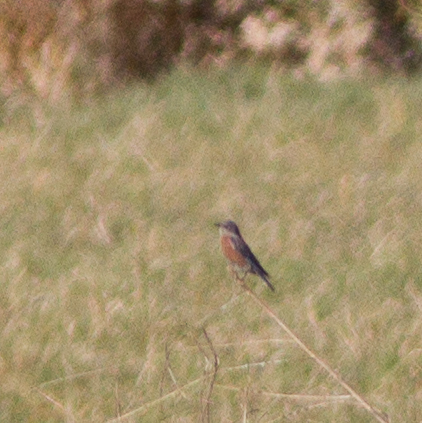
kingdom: Animalia
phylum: Chordata
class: Aves
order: Passeriformes
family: Turdidae
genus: Sialia
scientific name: Sialia mexicana
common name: Western bluebird
